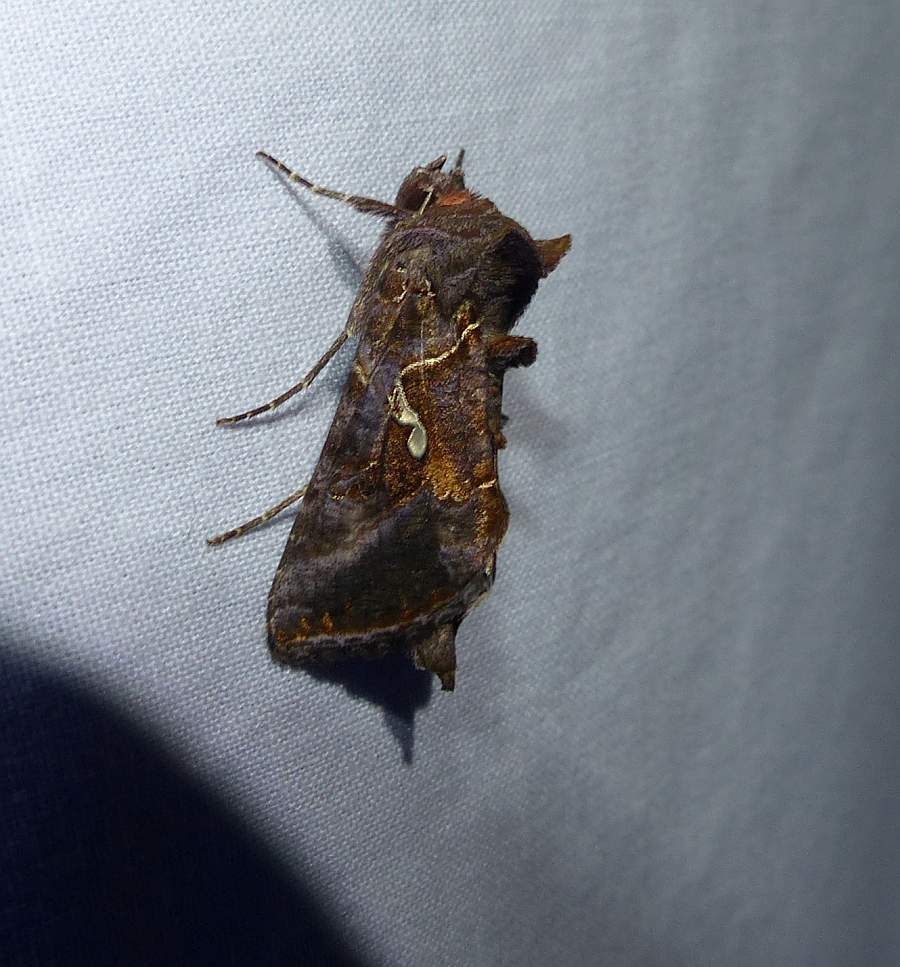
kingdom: Animalia
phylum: Arthropoda
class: Insecta
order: Lepidoptera
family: Noctuidae
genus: Autographa
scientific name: Autographa precationis
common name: Common looper moth
